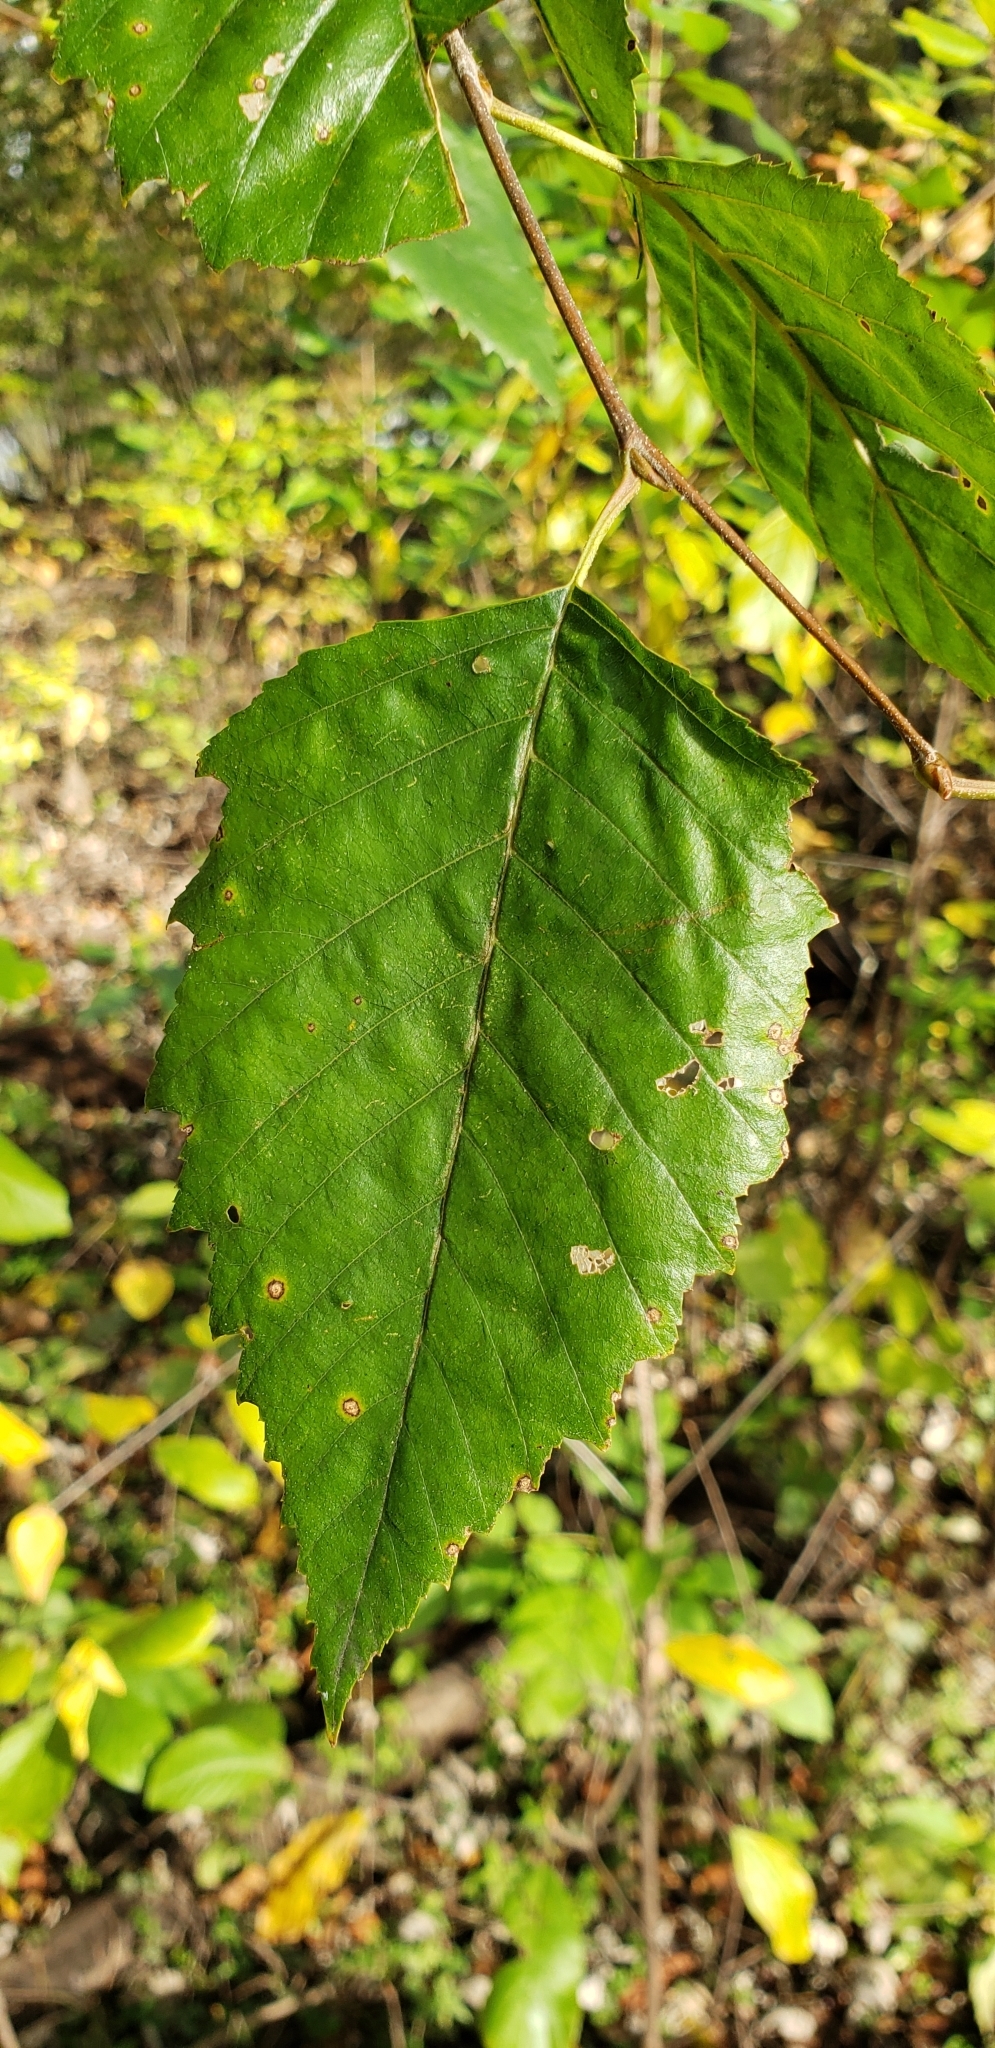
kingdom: Plantae
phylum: Tracheophyta
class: Magnoliopsida
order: Fagales
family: Betulaceae
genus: Betula
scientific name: Betula nigra
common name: Black birch
